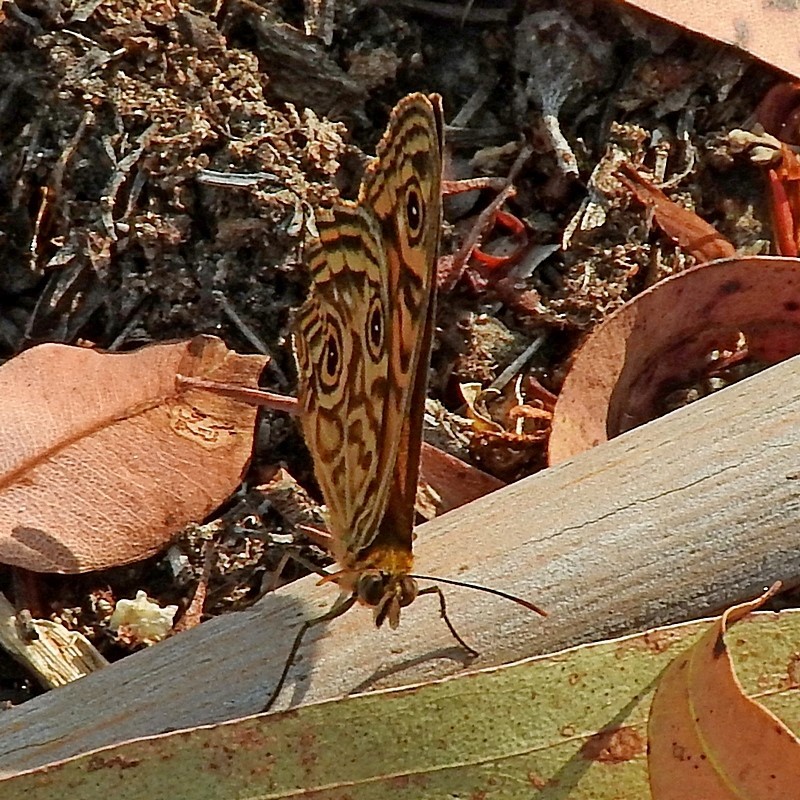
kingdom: Animalia
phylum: Arthropoda
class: Insecta
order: Lepidoptera
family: Nymphalidae
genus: Geitoneura
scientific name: Geitoneura acantha
